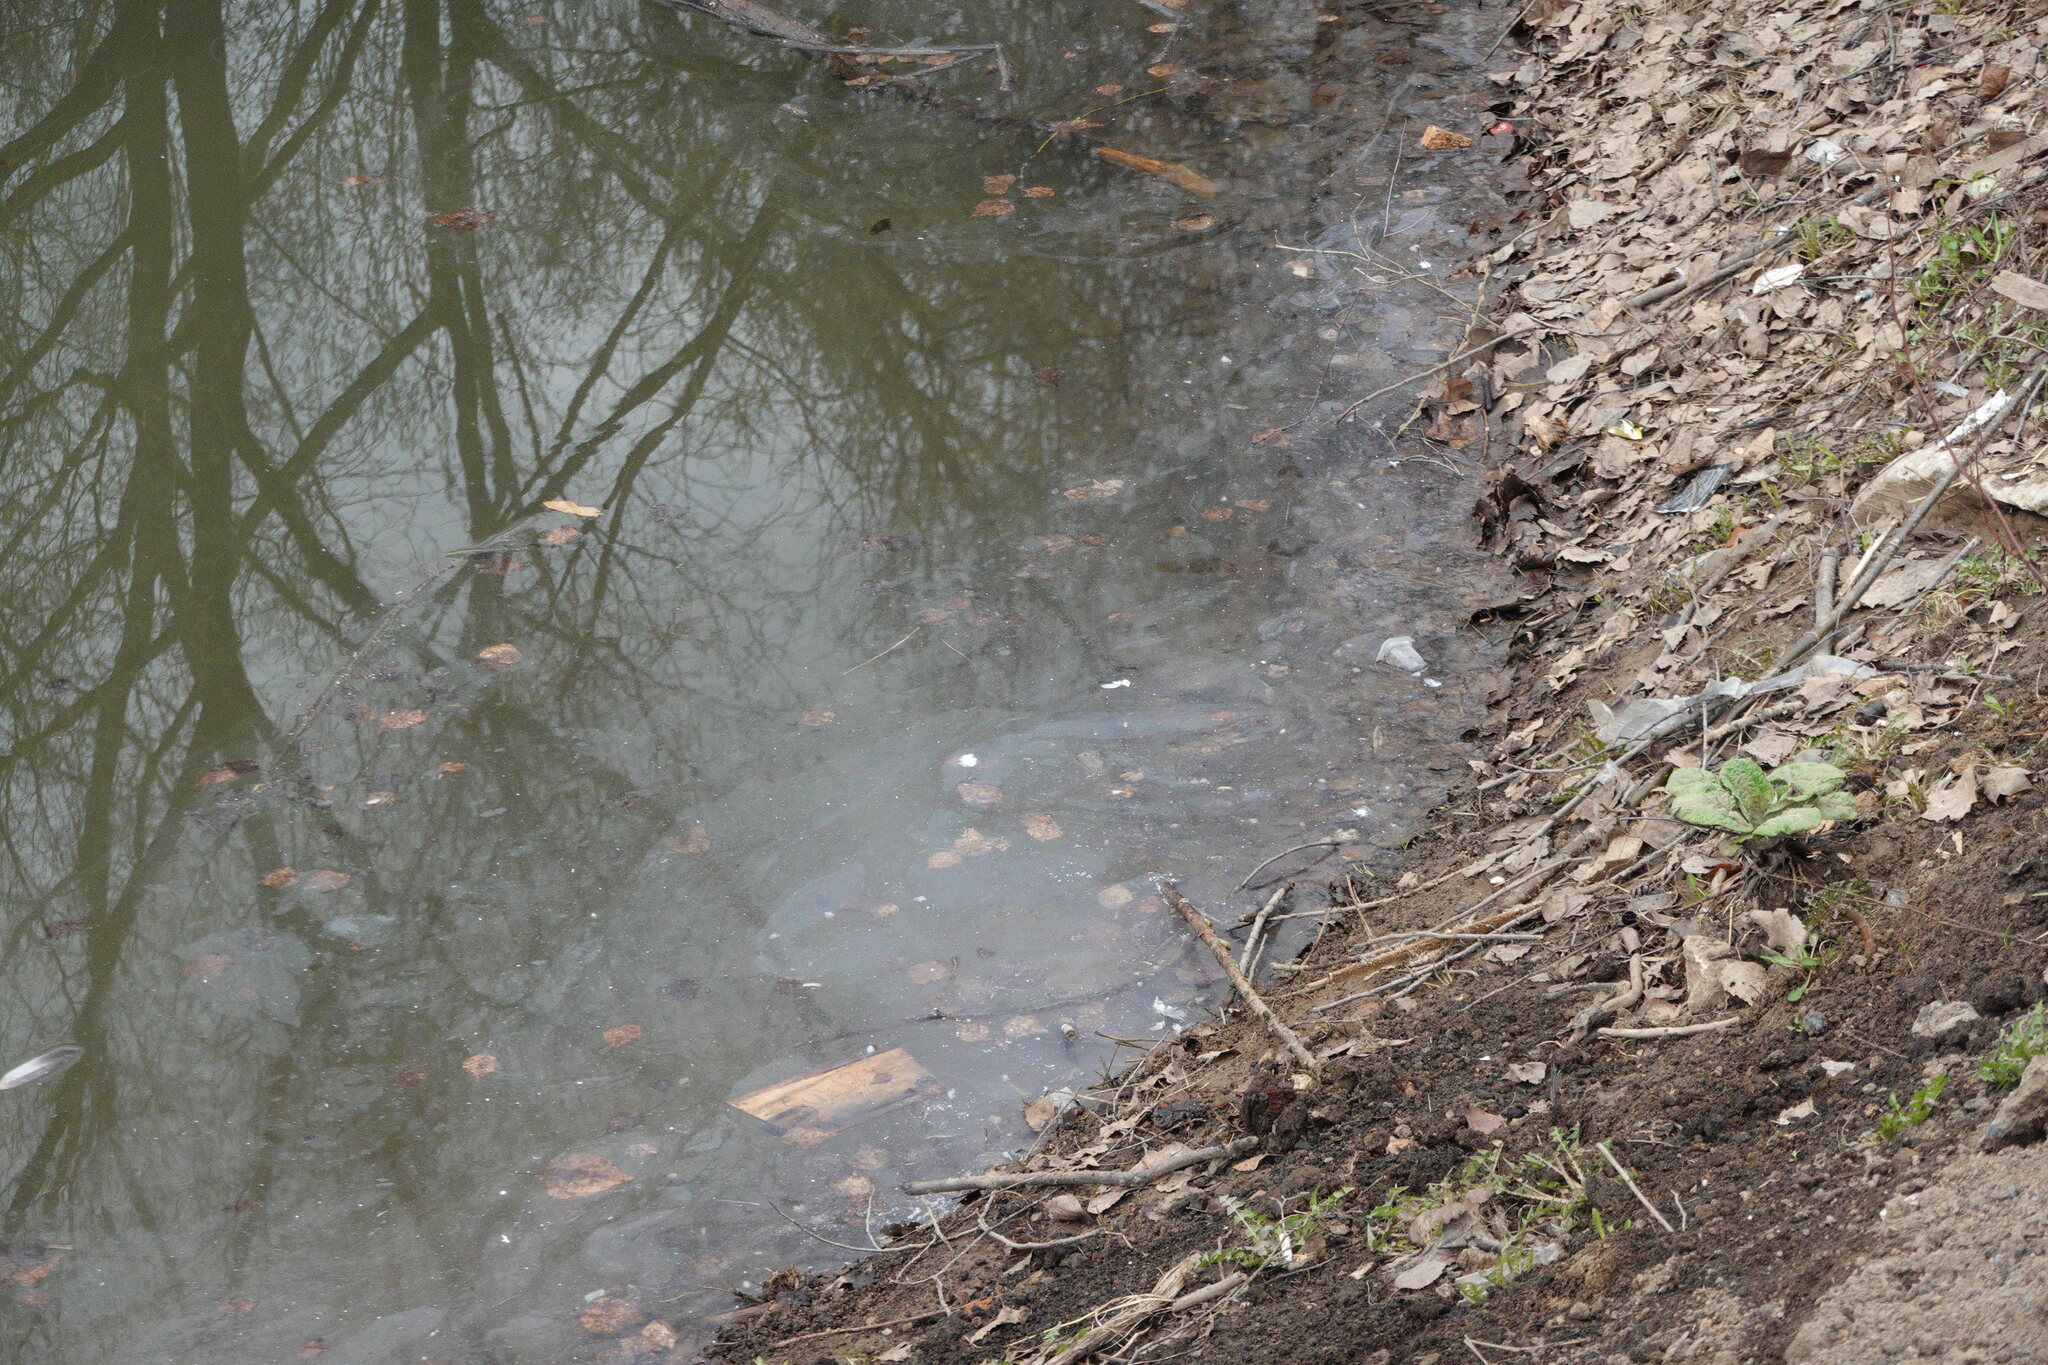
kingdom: Animalia
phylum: Chordata
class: Aves
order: Anseriformes
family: Anatidae
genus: Tadorna
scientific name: Tadorna ferruginea
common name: Ruddy shelduck
